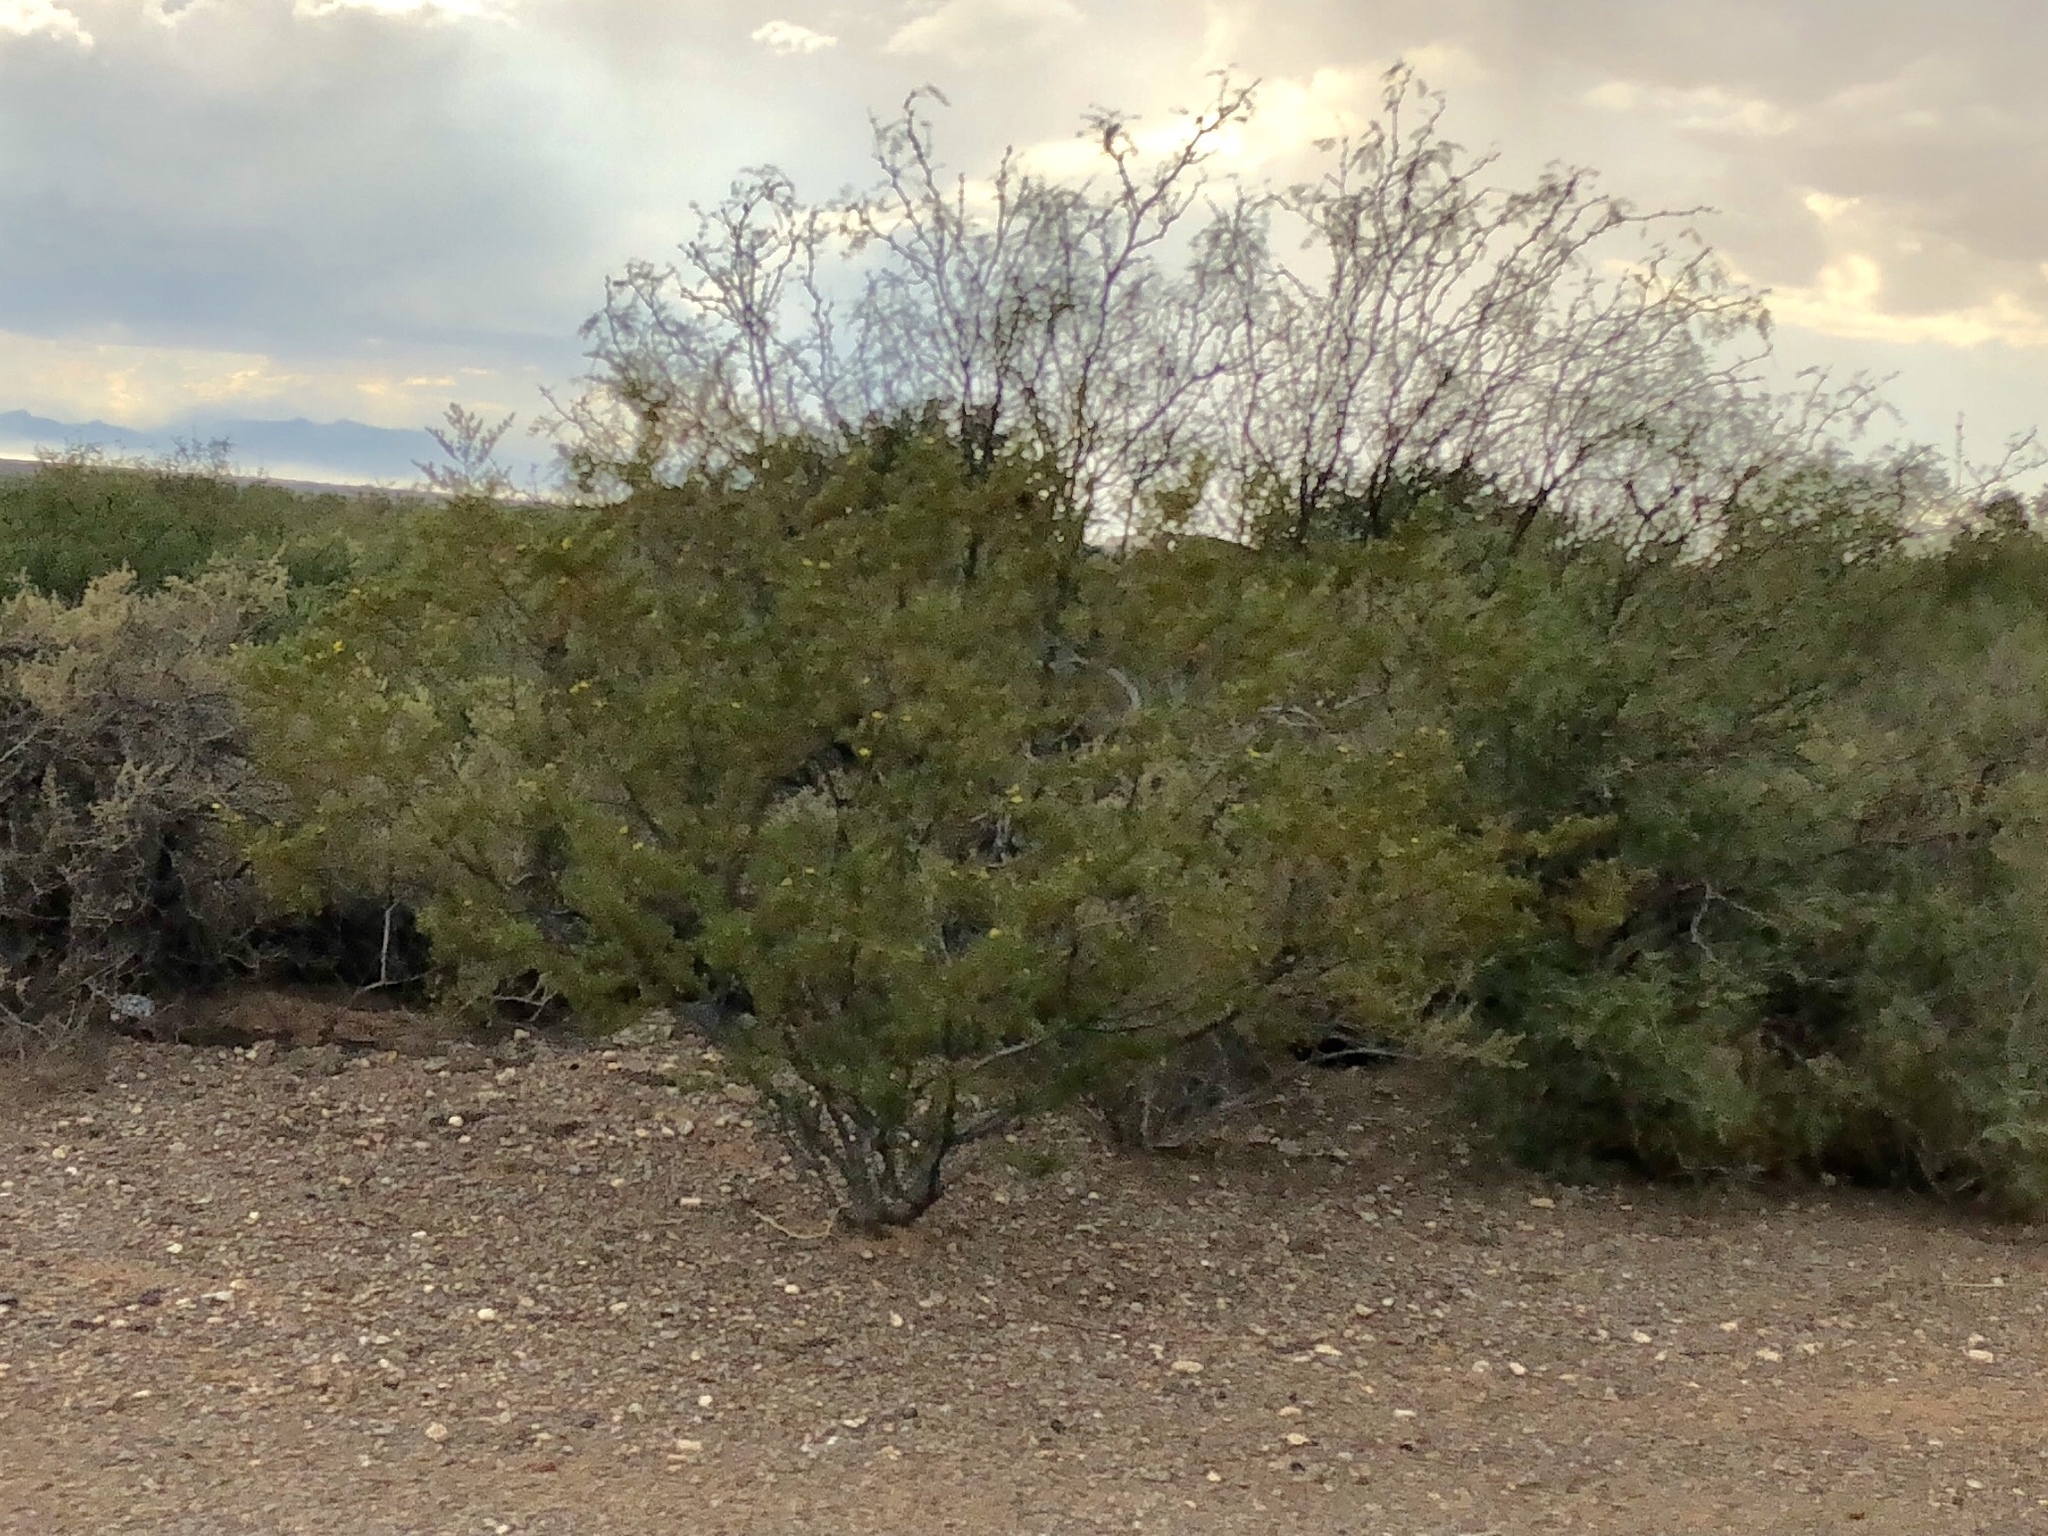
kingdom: Plantae
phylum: Tracheophyta
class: Magnoliopsida
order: Zygophyllales
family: Zygophyllaceae
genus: Larrea
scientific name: Larrea tridentata
